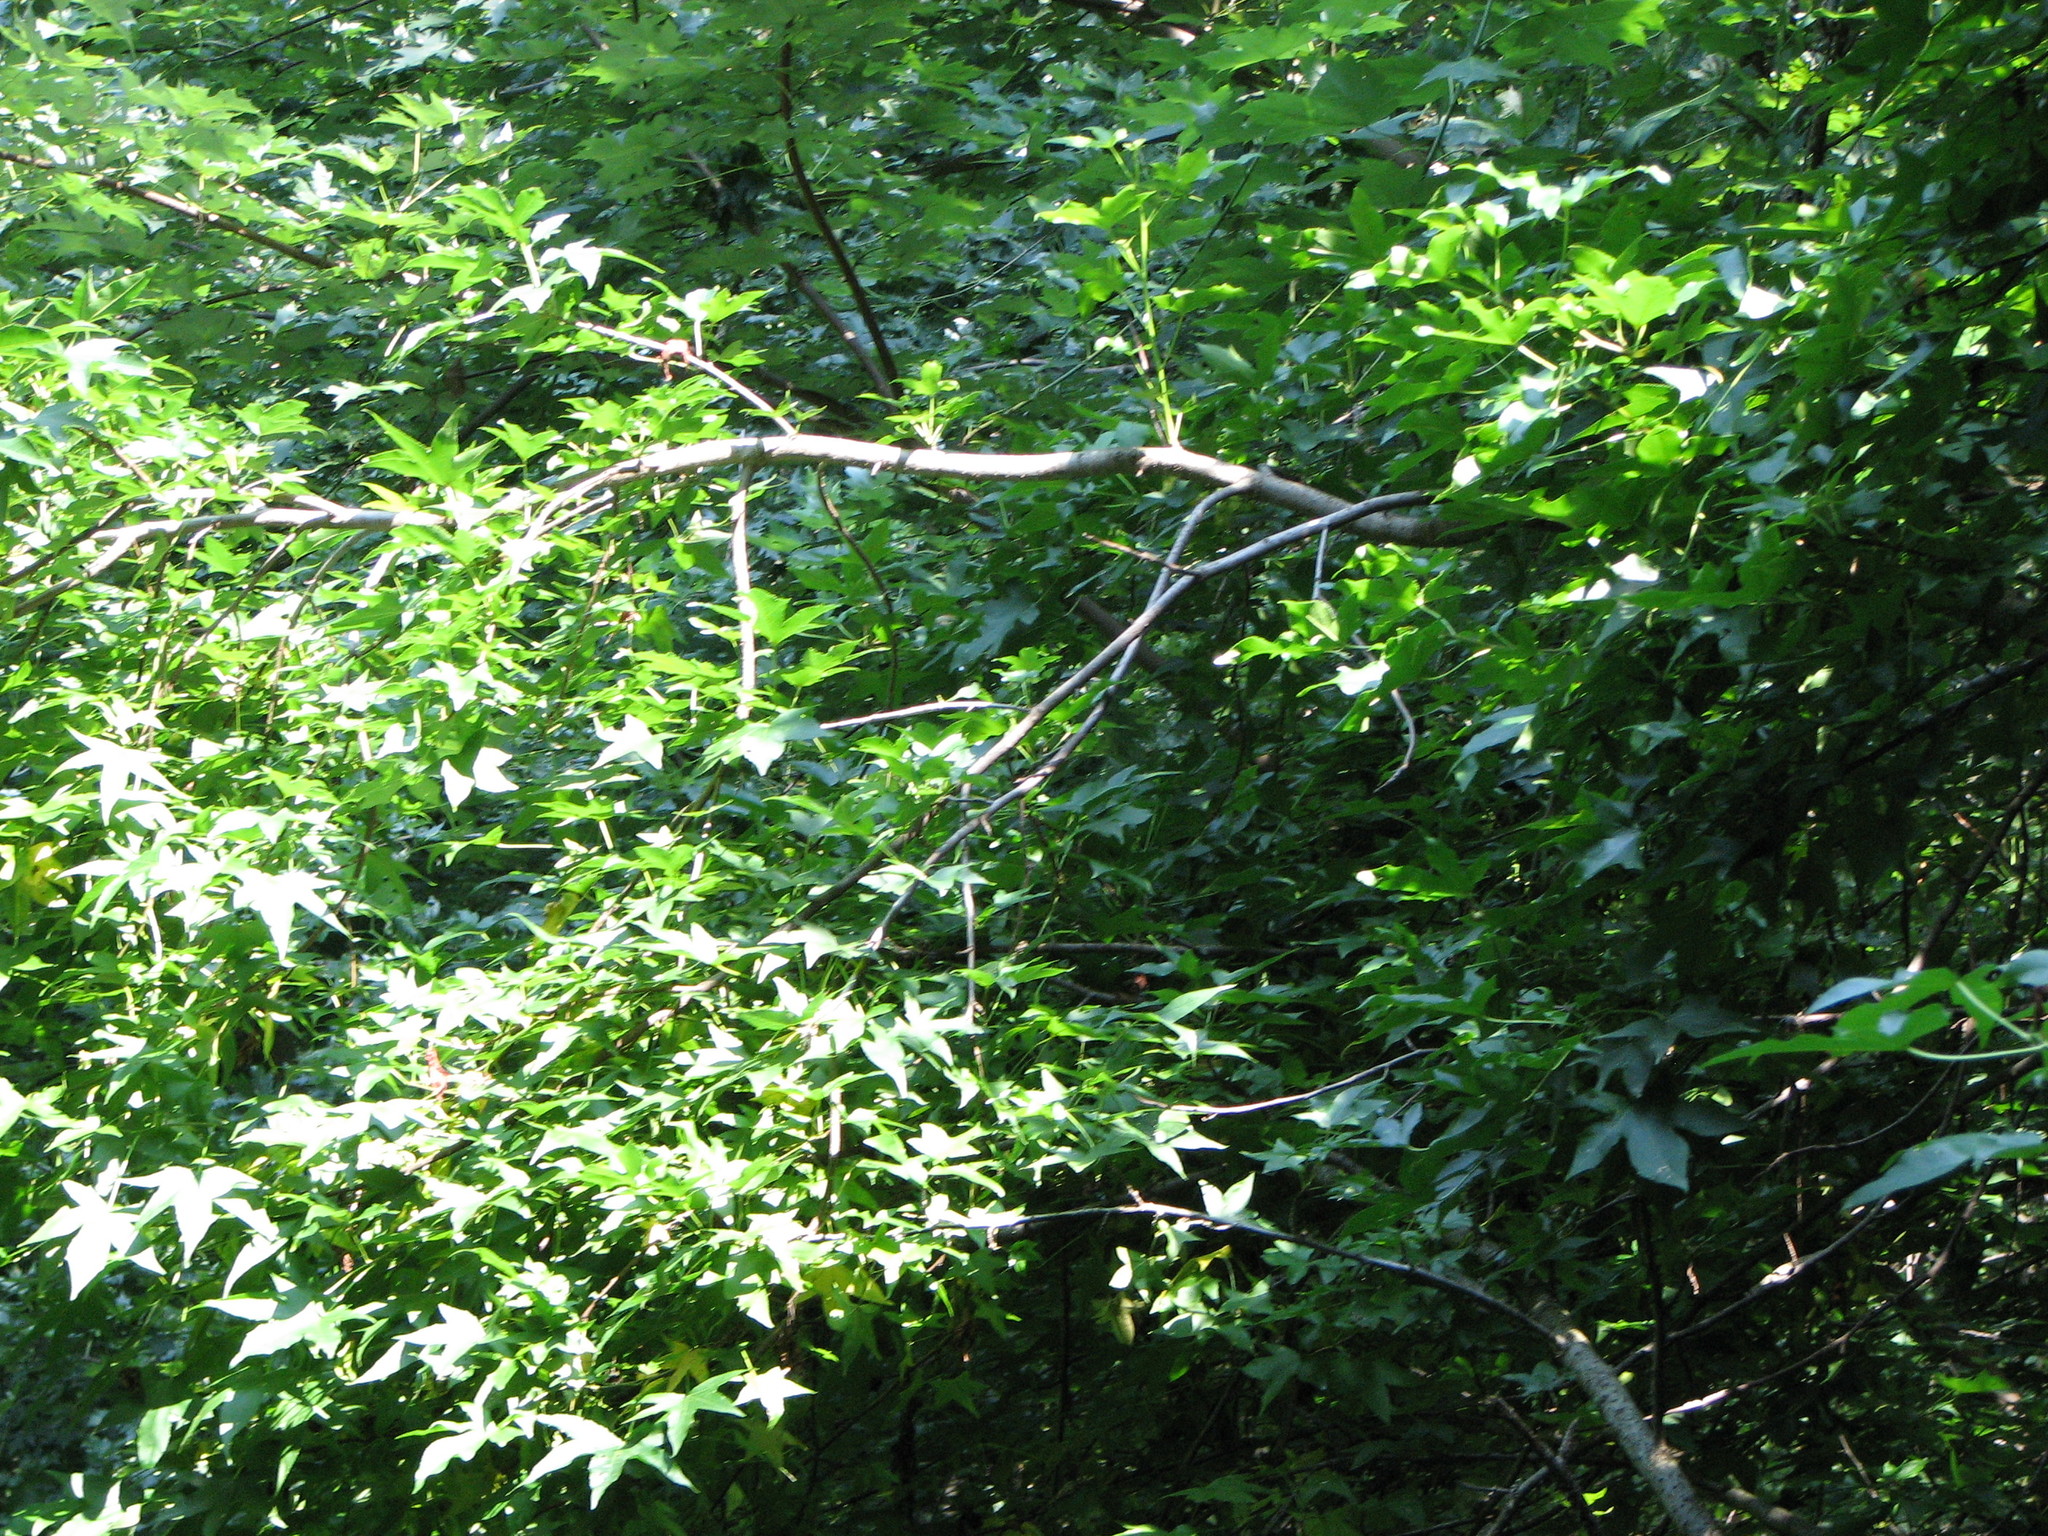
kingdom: Plantae
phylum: Tracheophyta
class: Magnoliopsida
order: Saxifragales
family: Altingiaceae
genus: Liquidambar
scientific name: Liquidambar styraciflua
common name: Sweet gum
